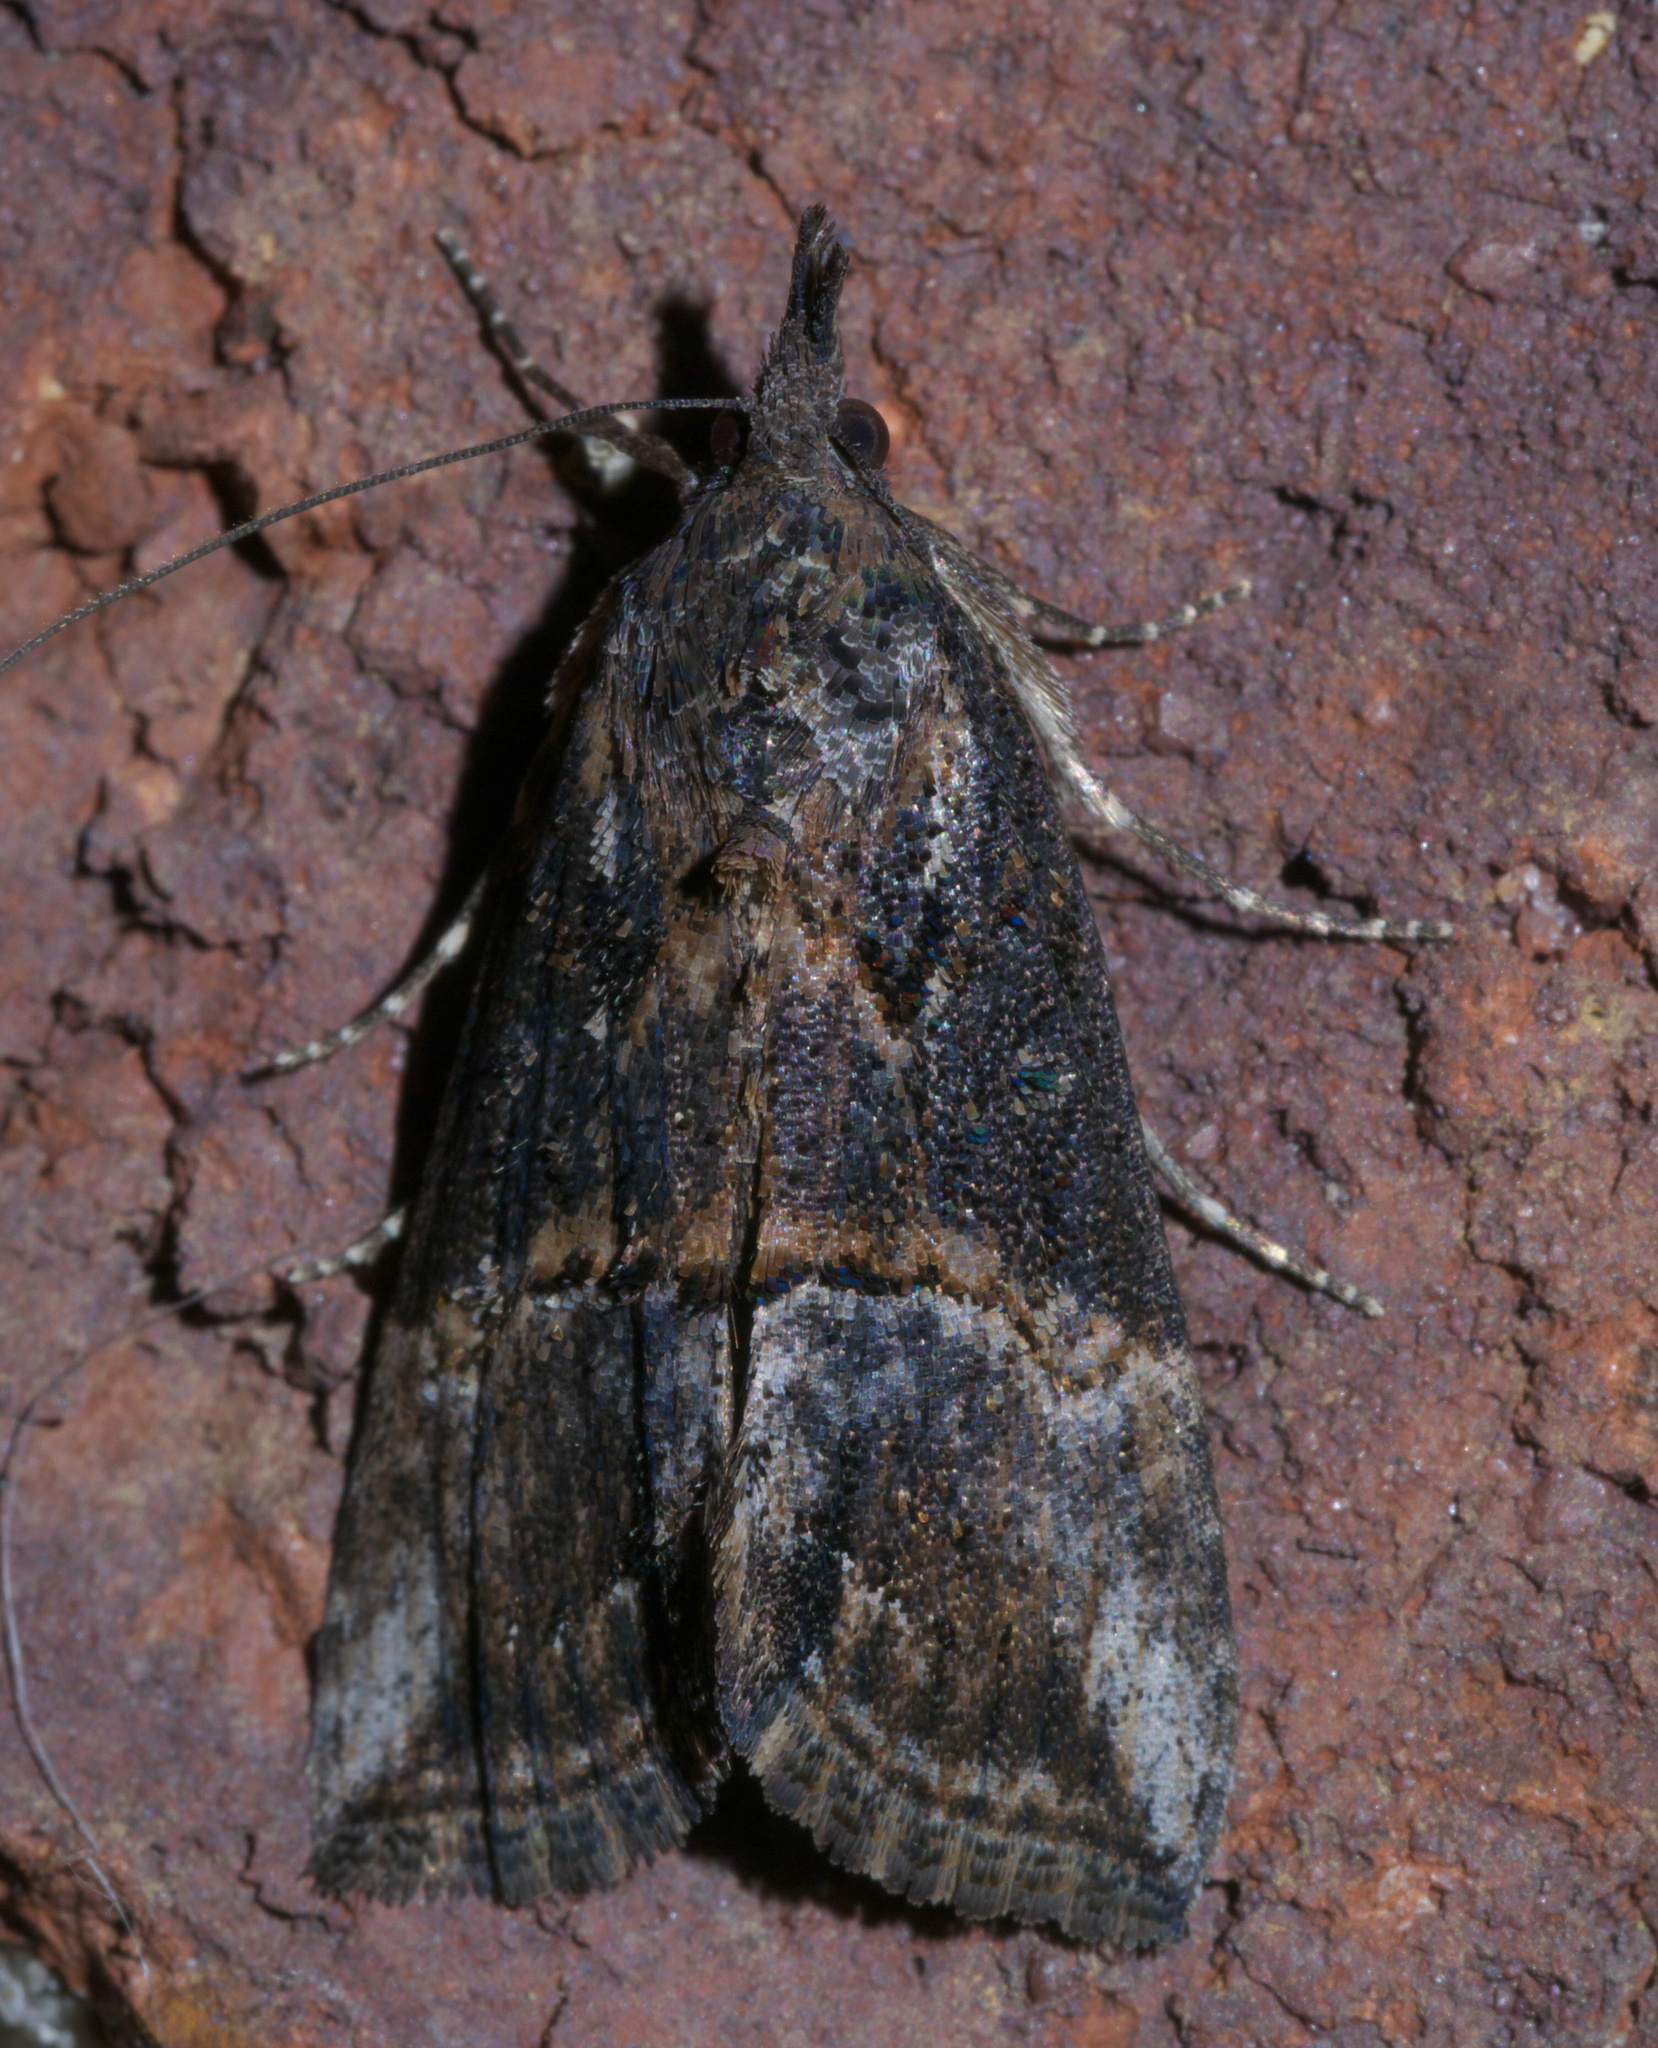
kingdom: Animalia
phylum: Arthropoda
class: Insecta
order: Lepidoptera
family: Erebidae
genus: Hypena
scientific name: Hypena scabra
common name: Green cloverworm
